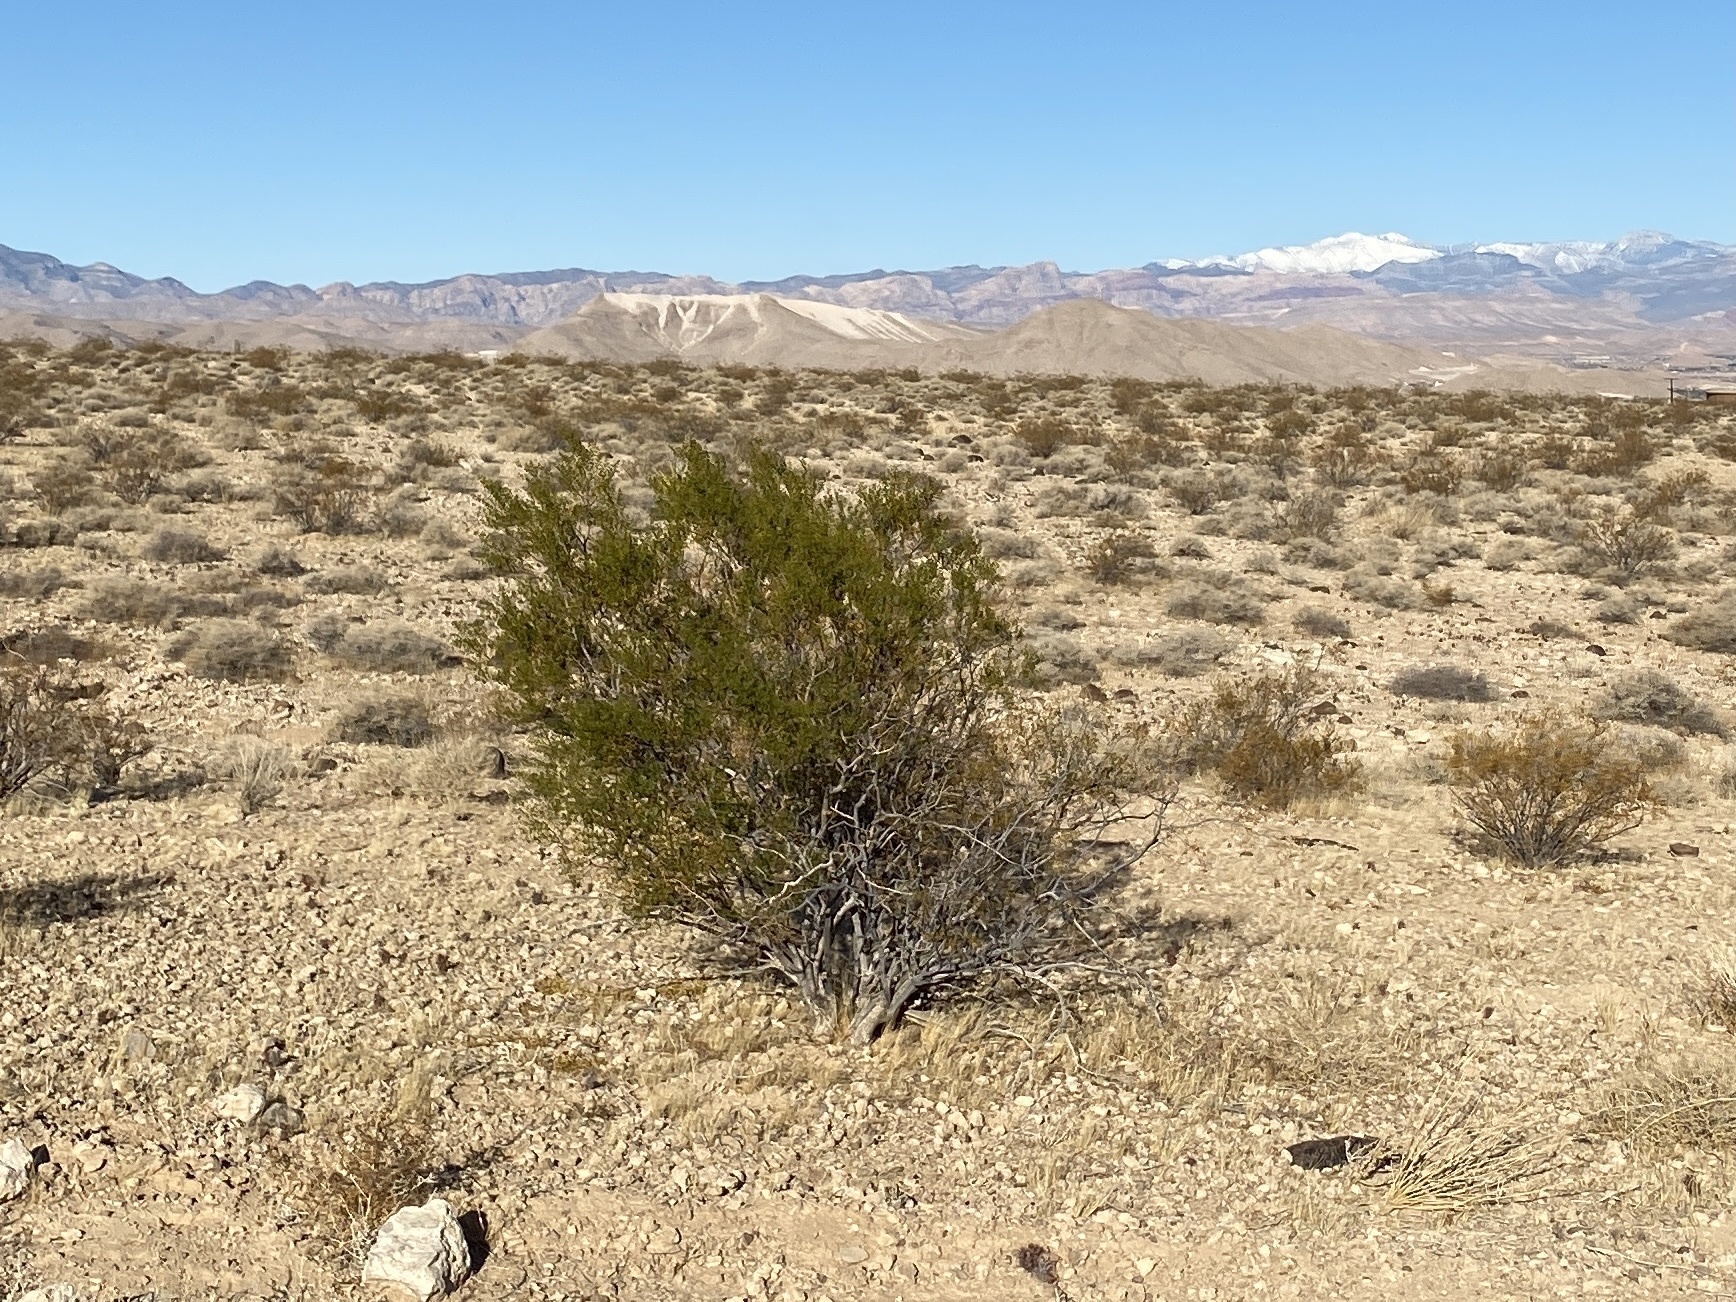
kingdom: Plantae
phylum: Tracheophyta
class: Magnoliopsida
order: Zygophyllales
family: Zygophyllaceae
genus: Larrea
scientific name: Larrea tridentata
